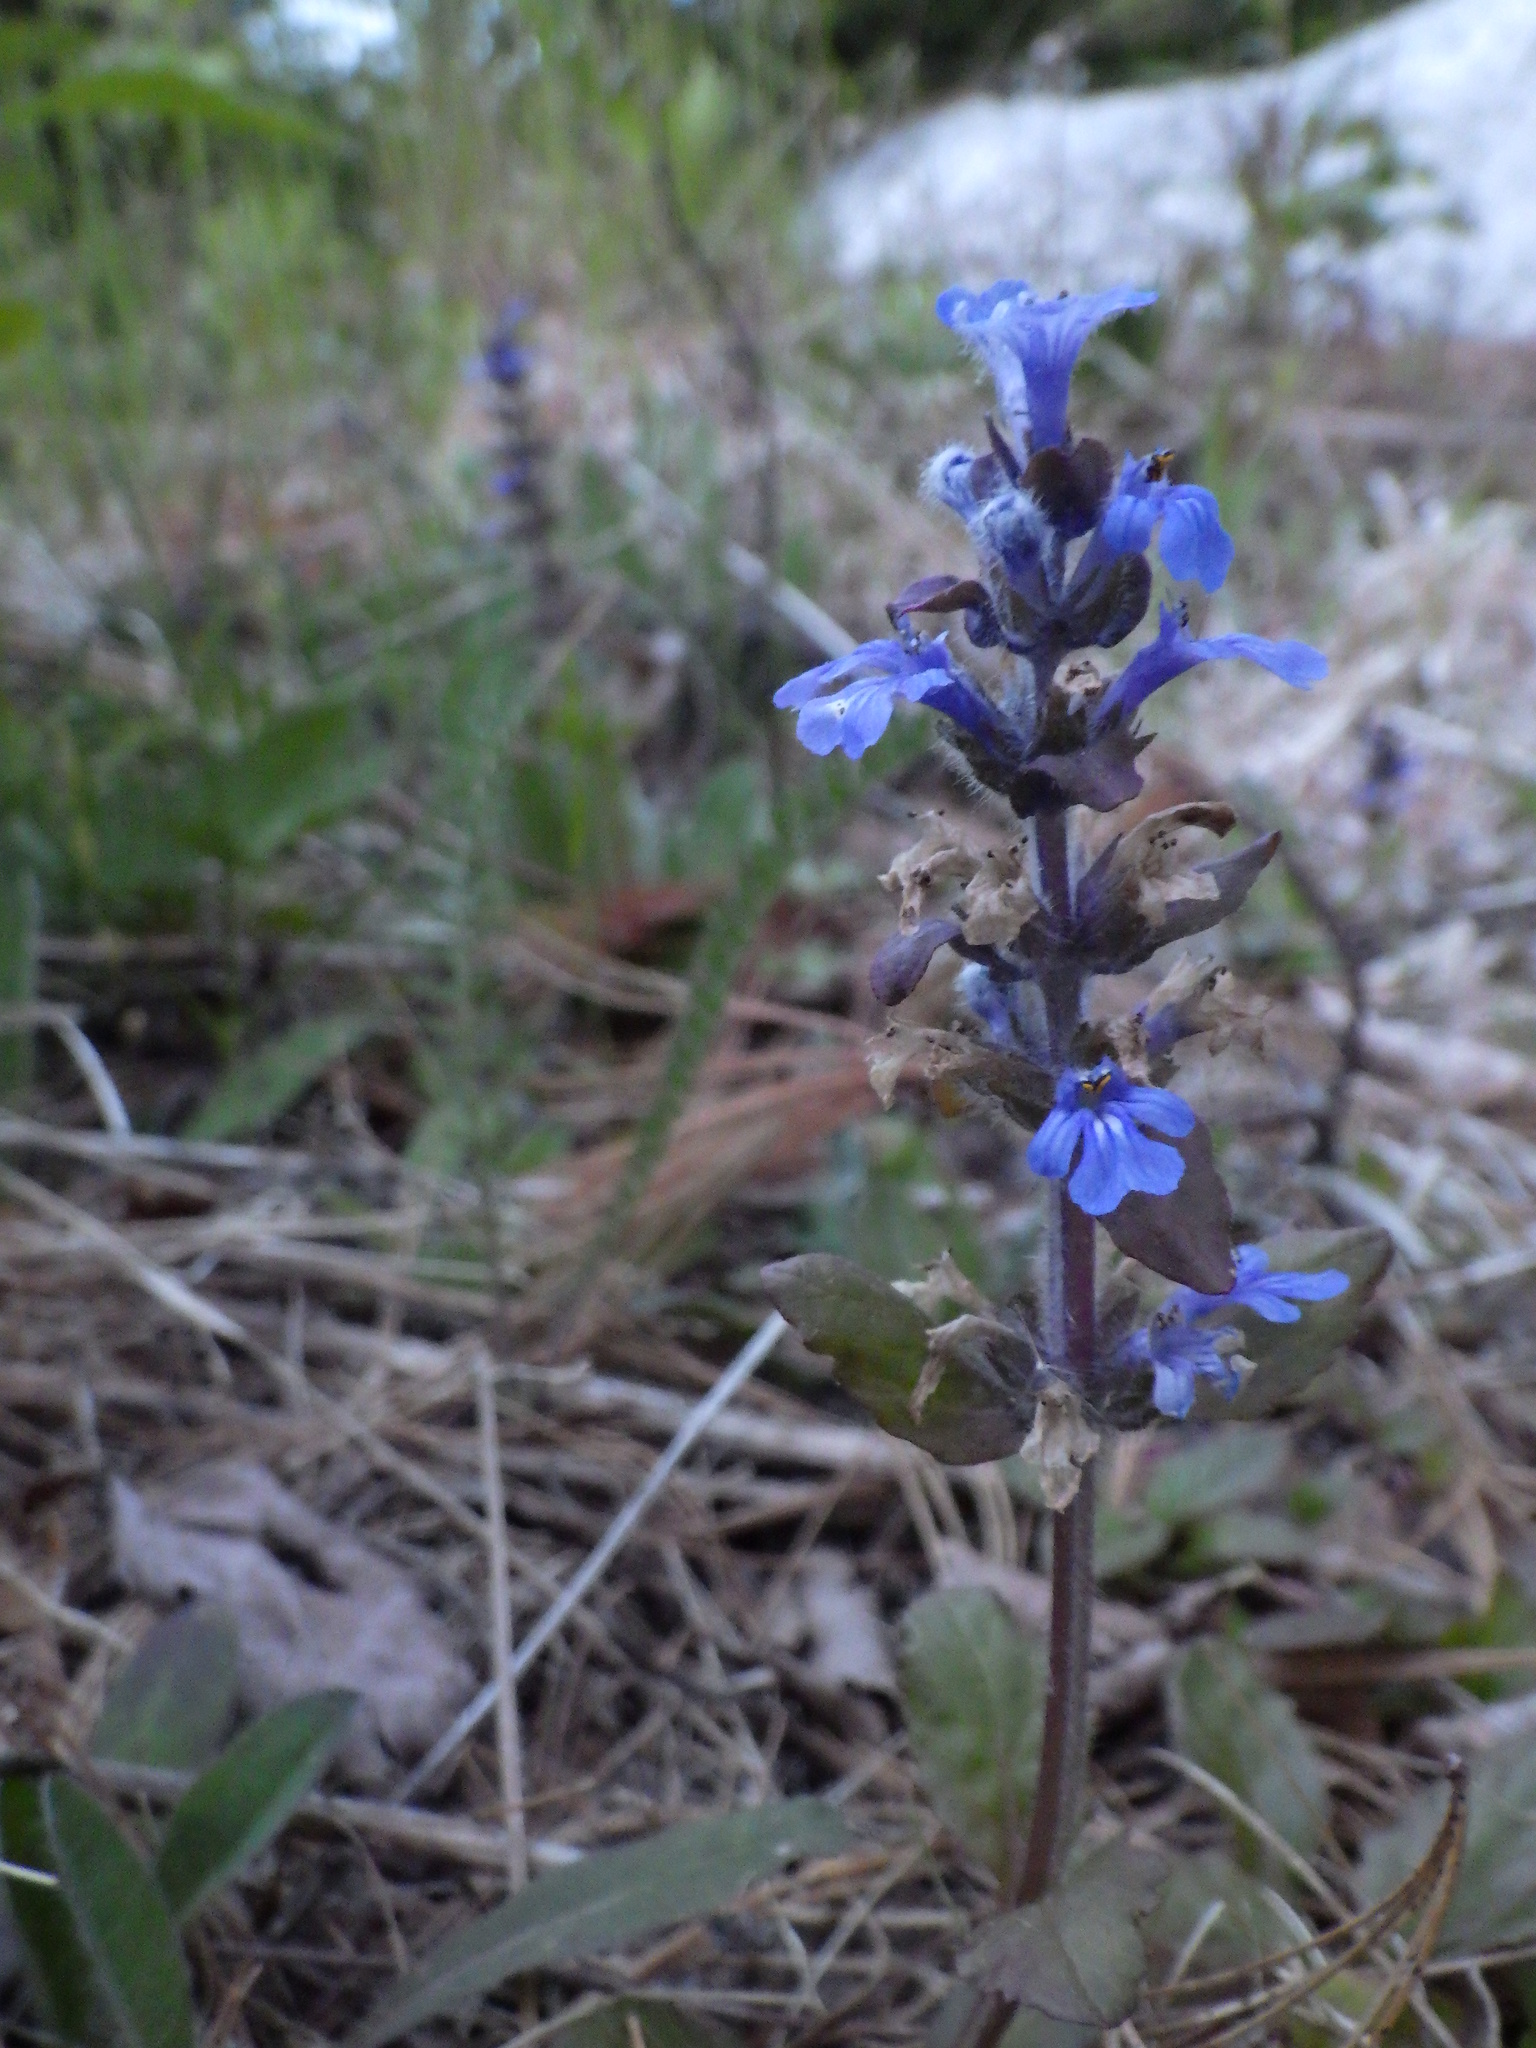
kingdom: Plantae
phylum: Tracheophyta
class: Magnoliopsida
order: Lamiales
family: Lamiaceae
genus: Ajuga
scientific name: Ajuga reptans
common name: Bugle
